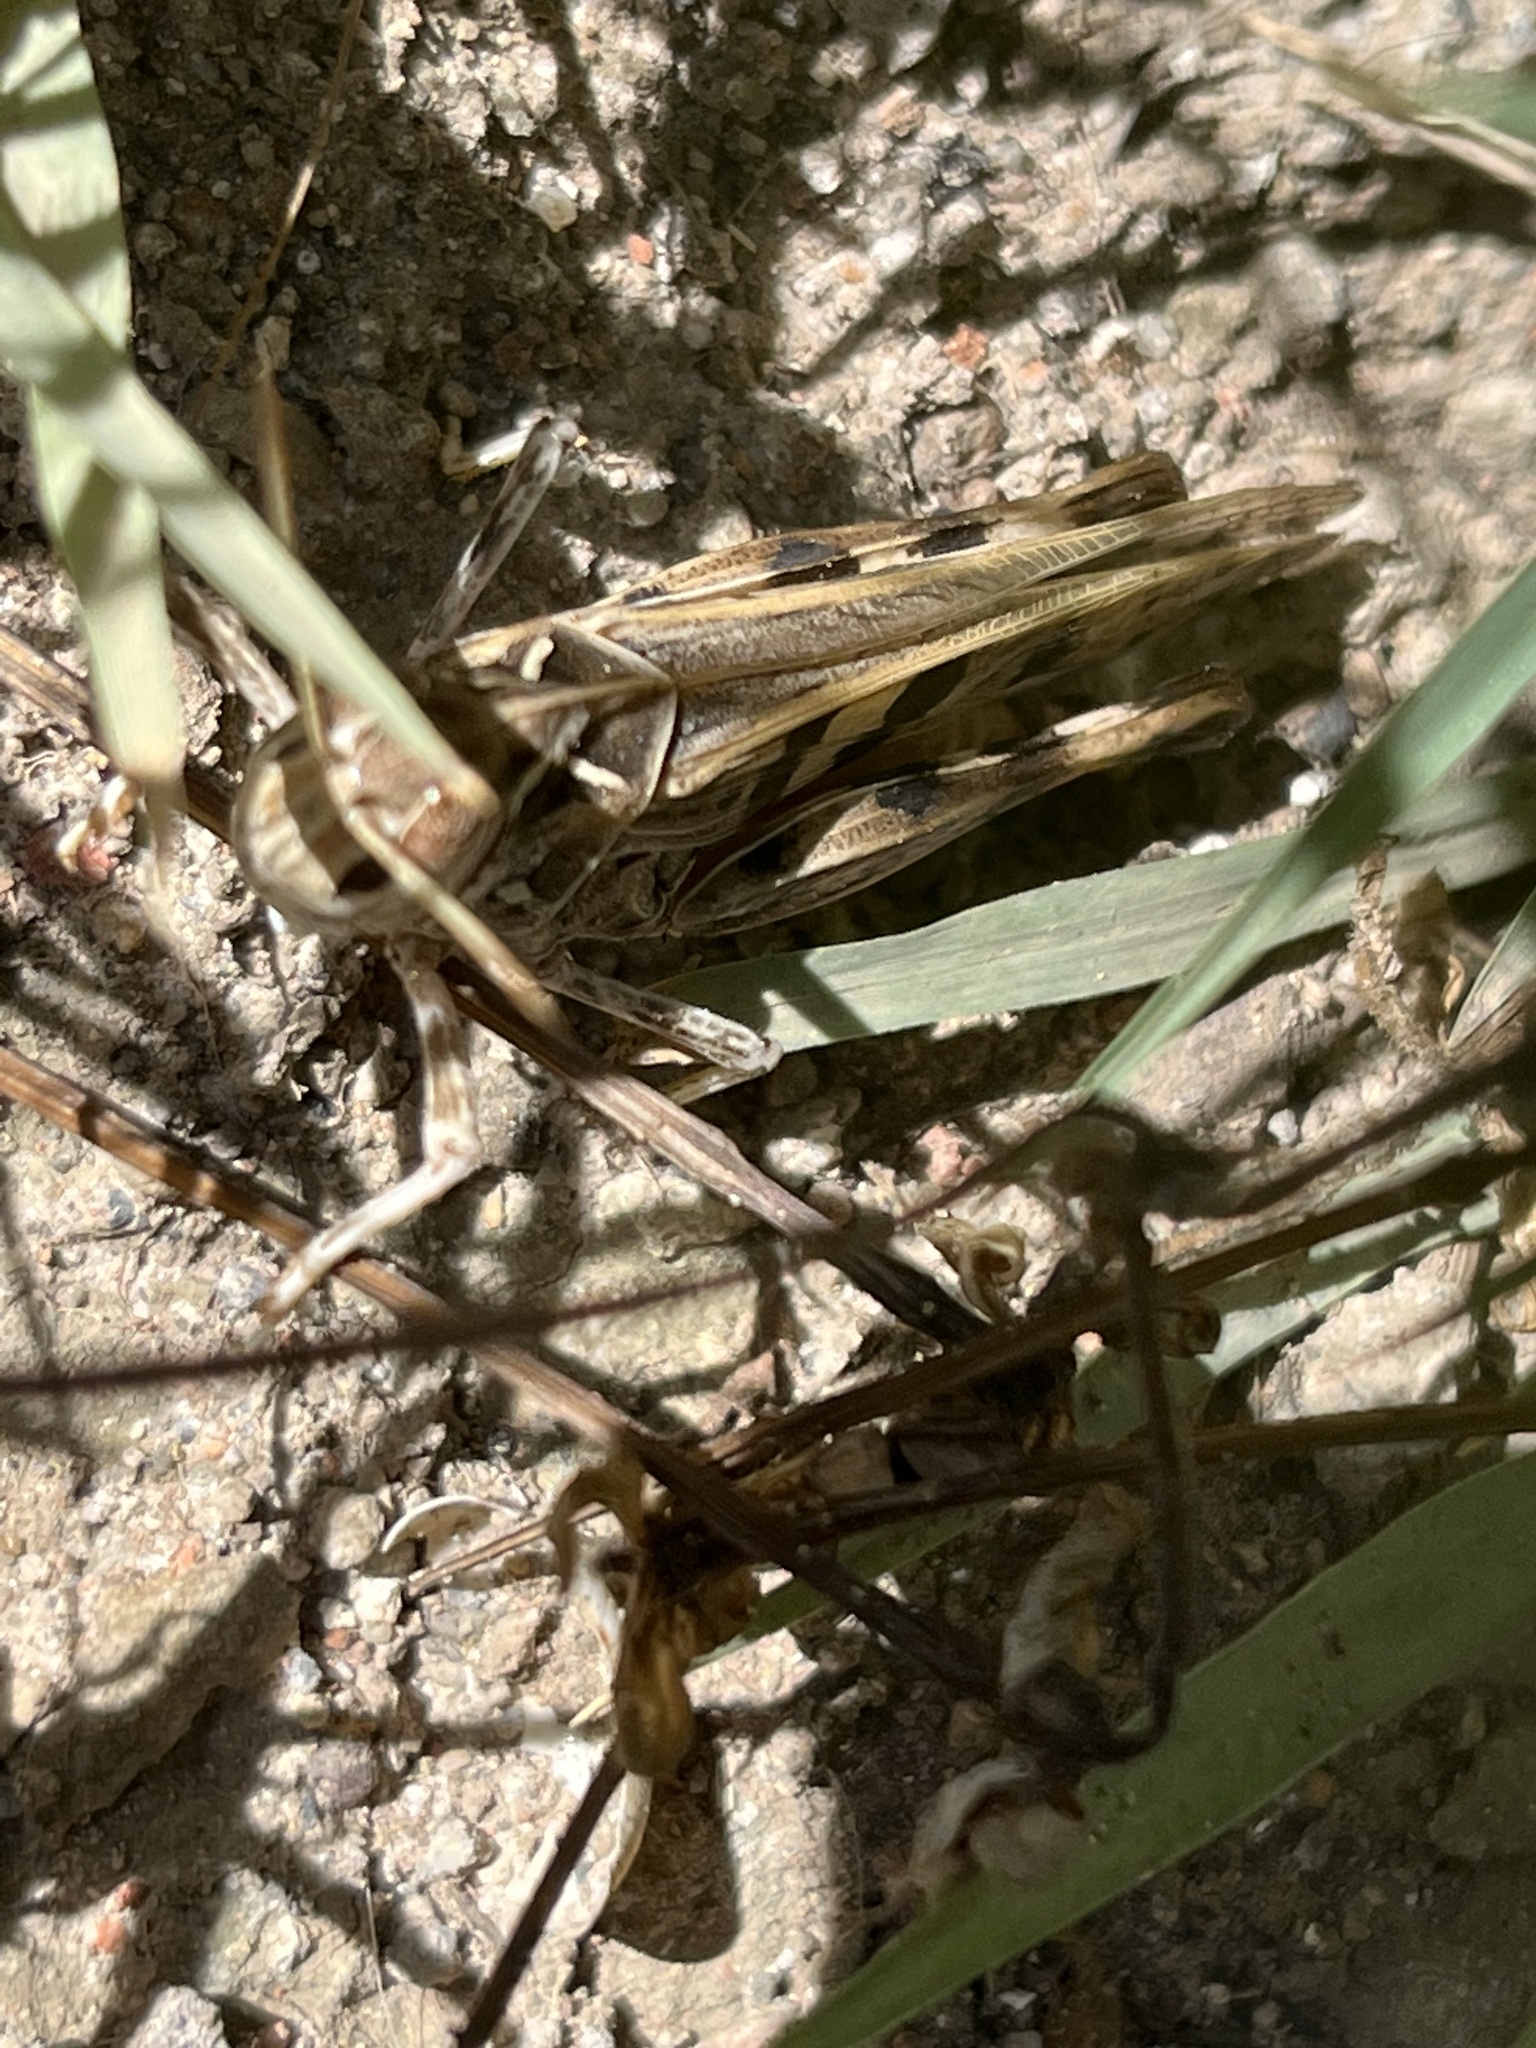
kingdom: Animalia
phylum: Arthropoda
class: Insecta
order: Orthoptera
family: Acrididae
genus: Oedaleus
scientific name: Oedaleus decorus
